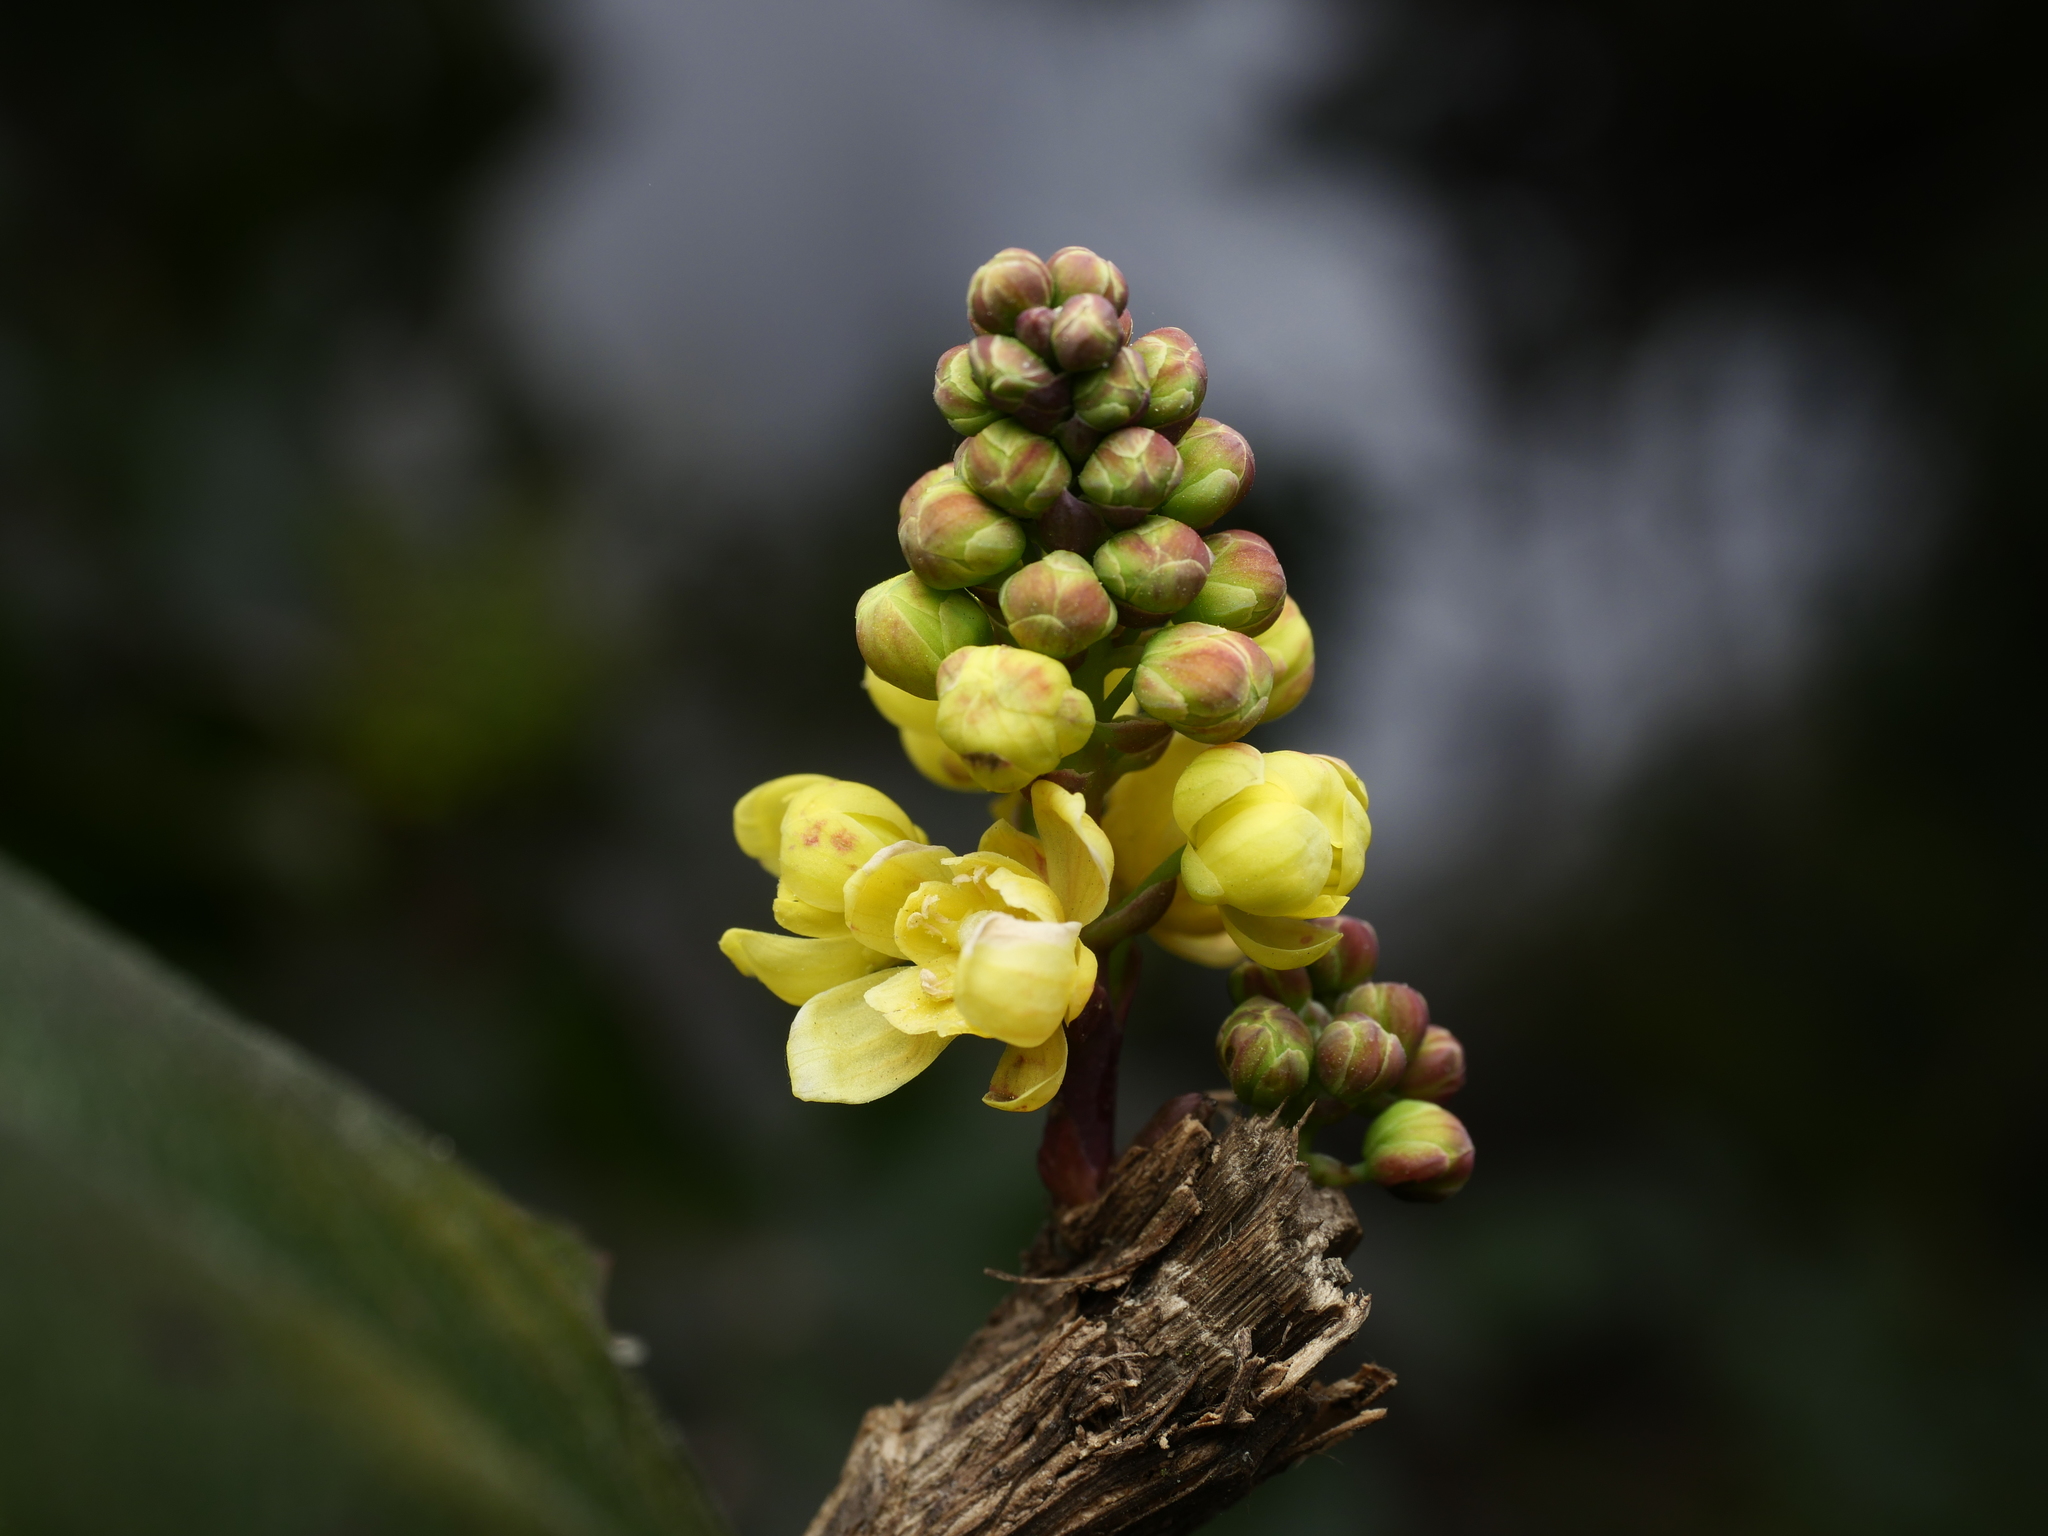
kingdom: Plantae
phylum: Tracheophyta
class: Magnoliopsida
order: Ranunculales
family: Berberidaceae
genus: Mahonia
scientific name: Mahonia aquifolium
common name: Oregon-grape
